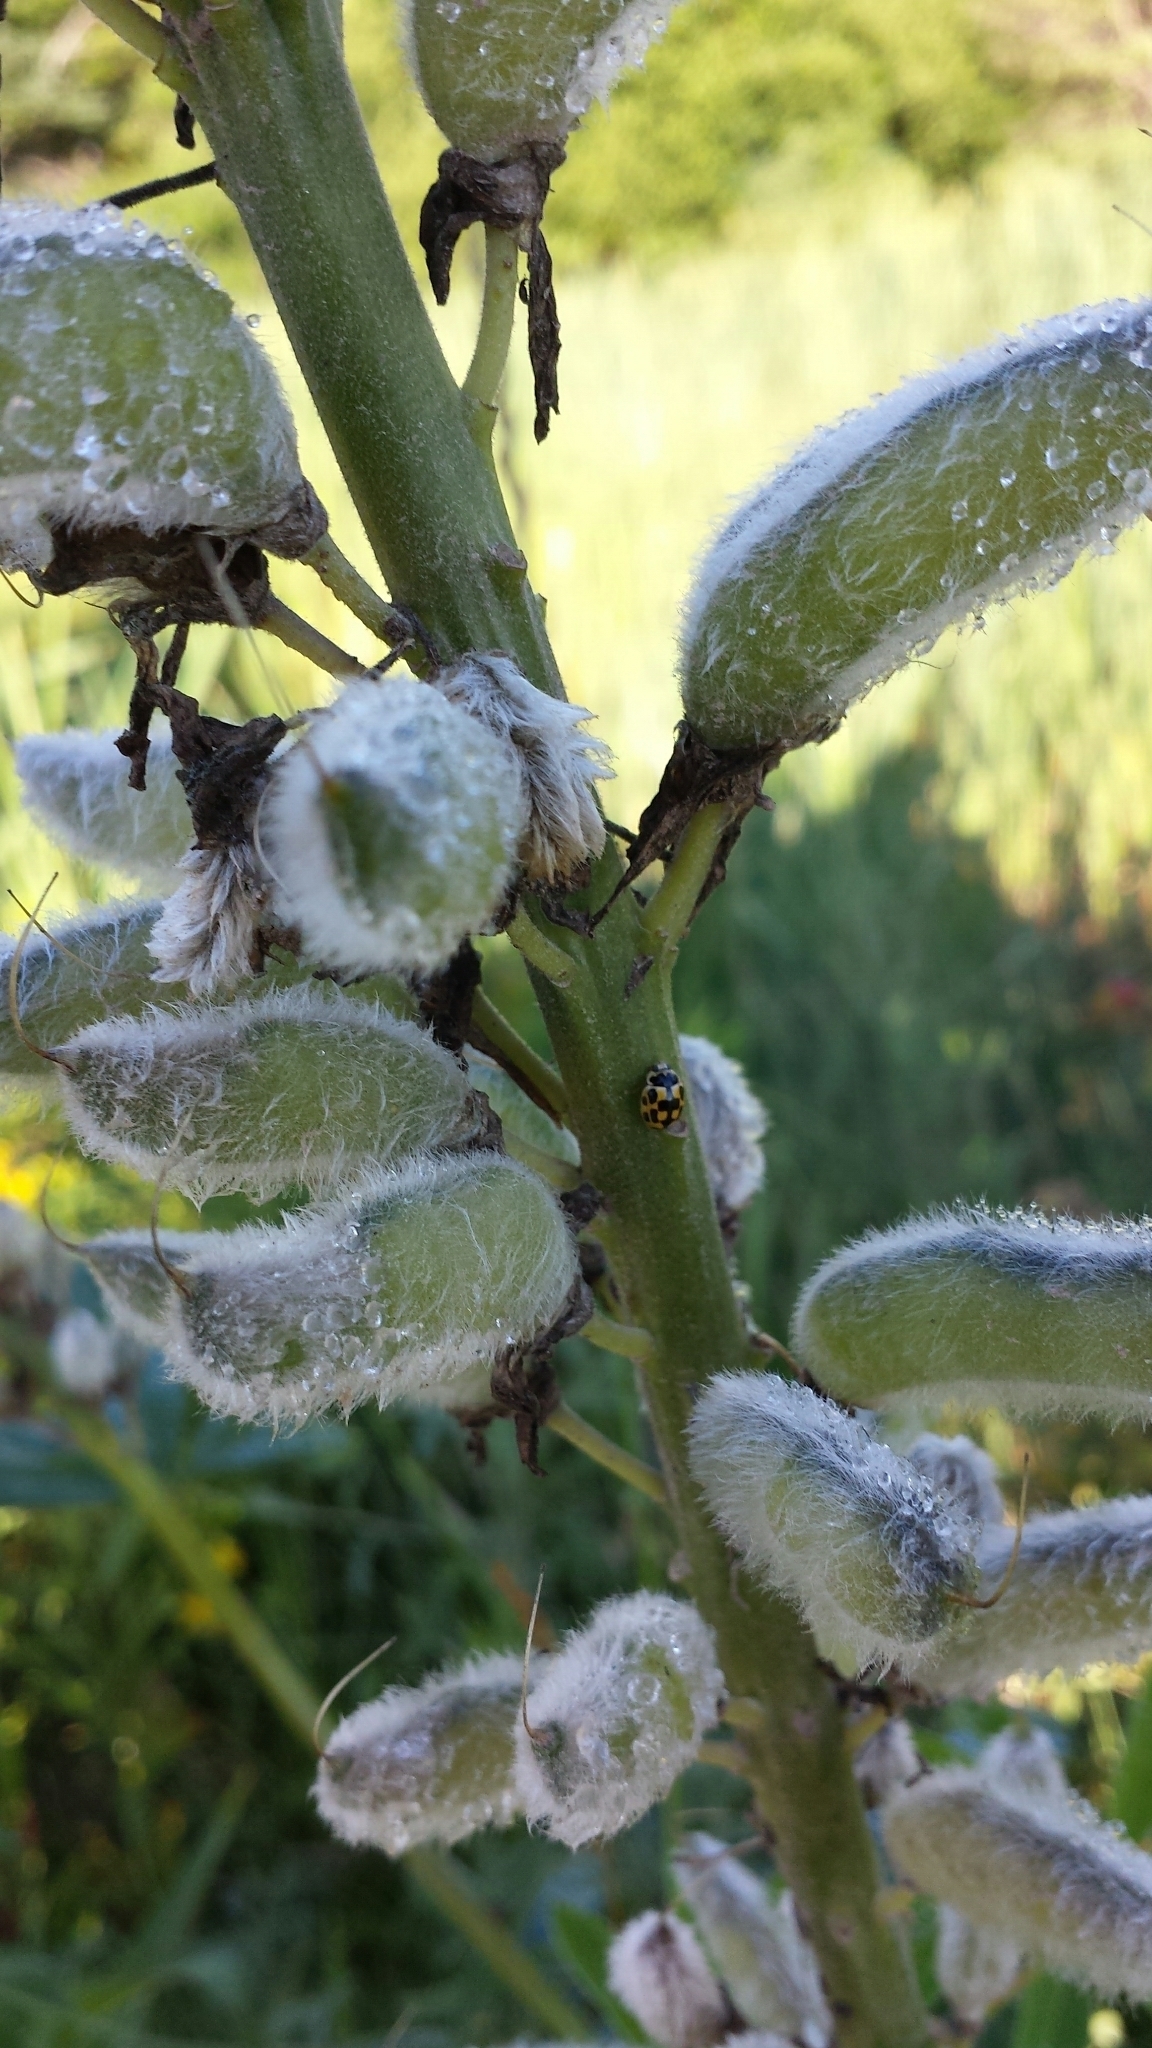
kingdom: Animalia
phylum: Arthropoda
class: Insecta
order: Coleoptera
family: Coccinellidae
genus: Propylaea
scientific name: Propylaea quatuordecimpunctata
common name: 14-spotted ladybird beetle
